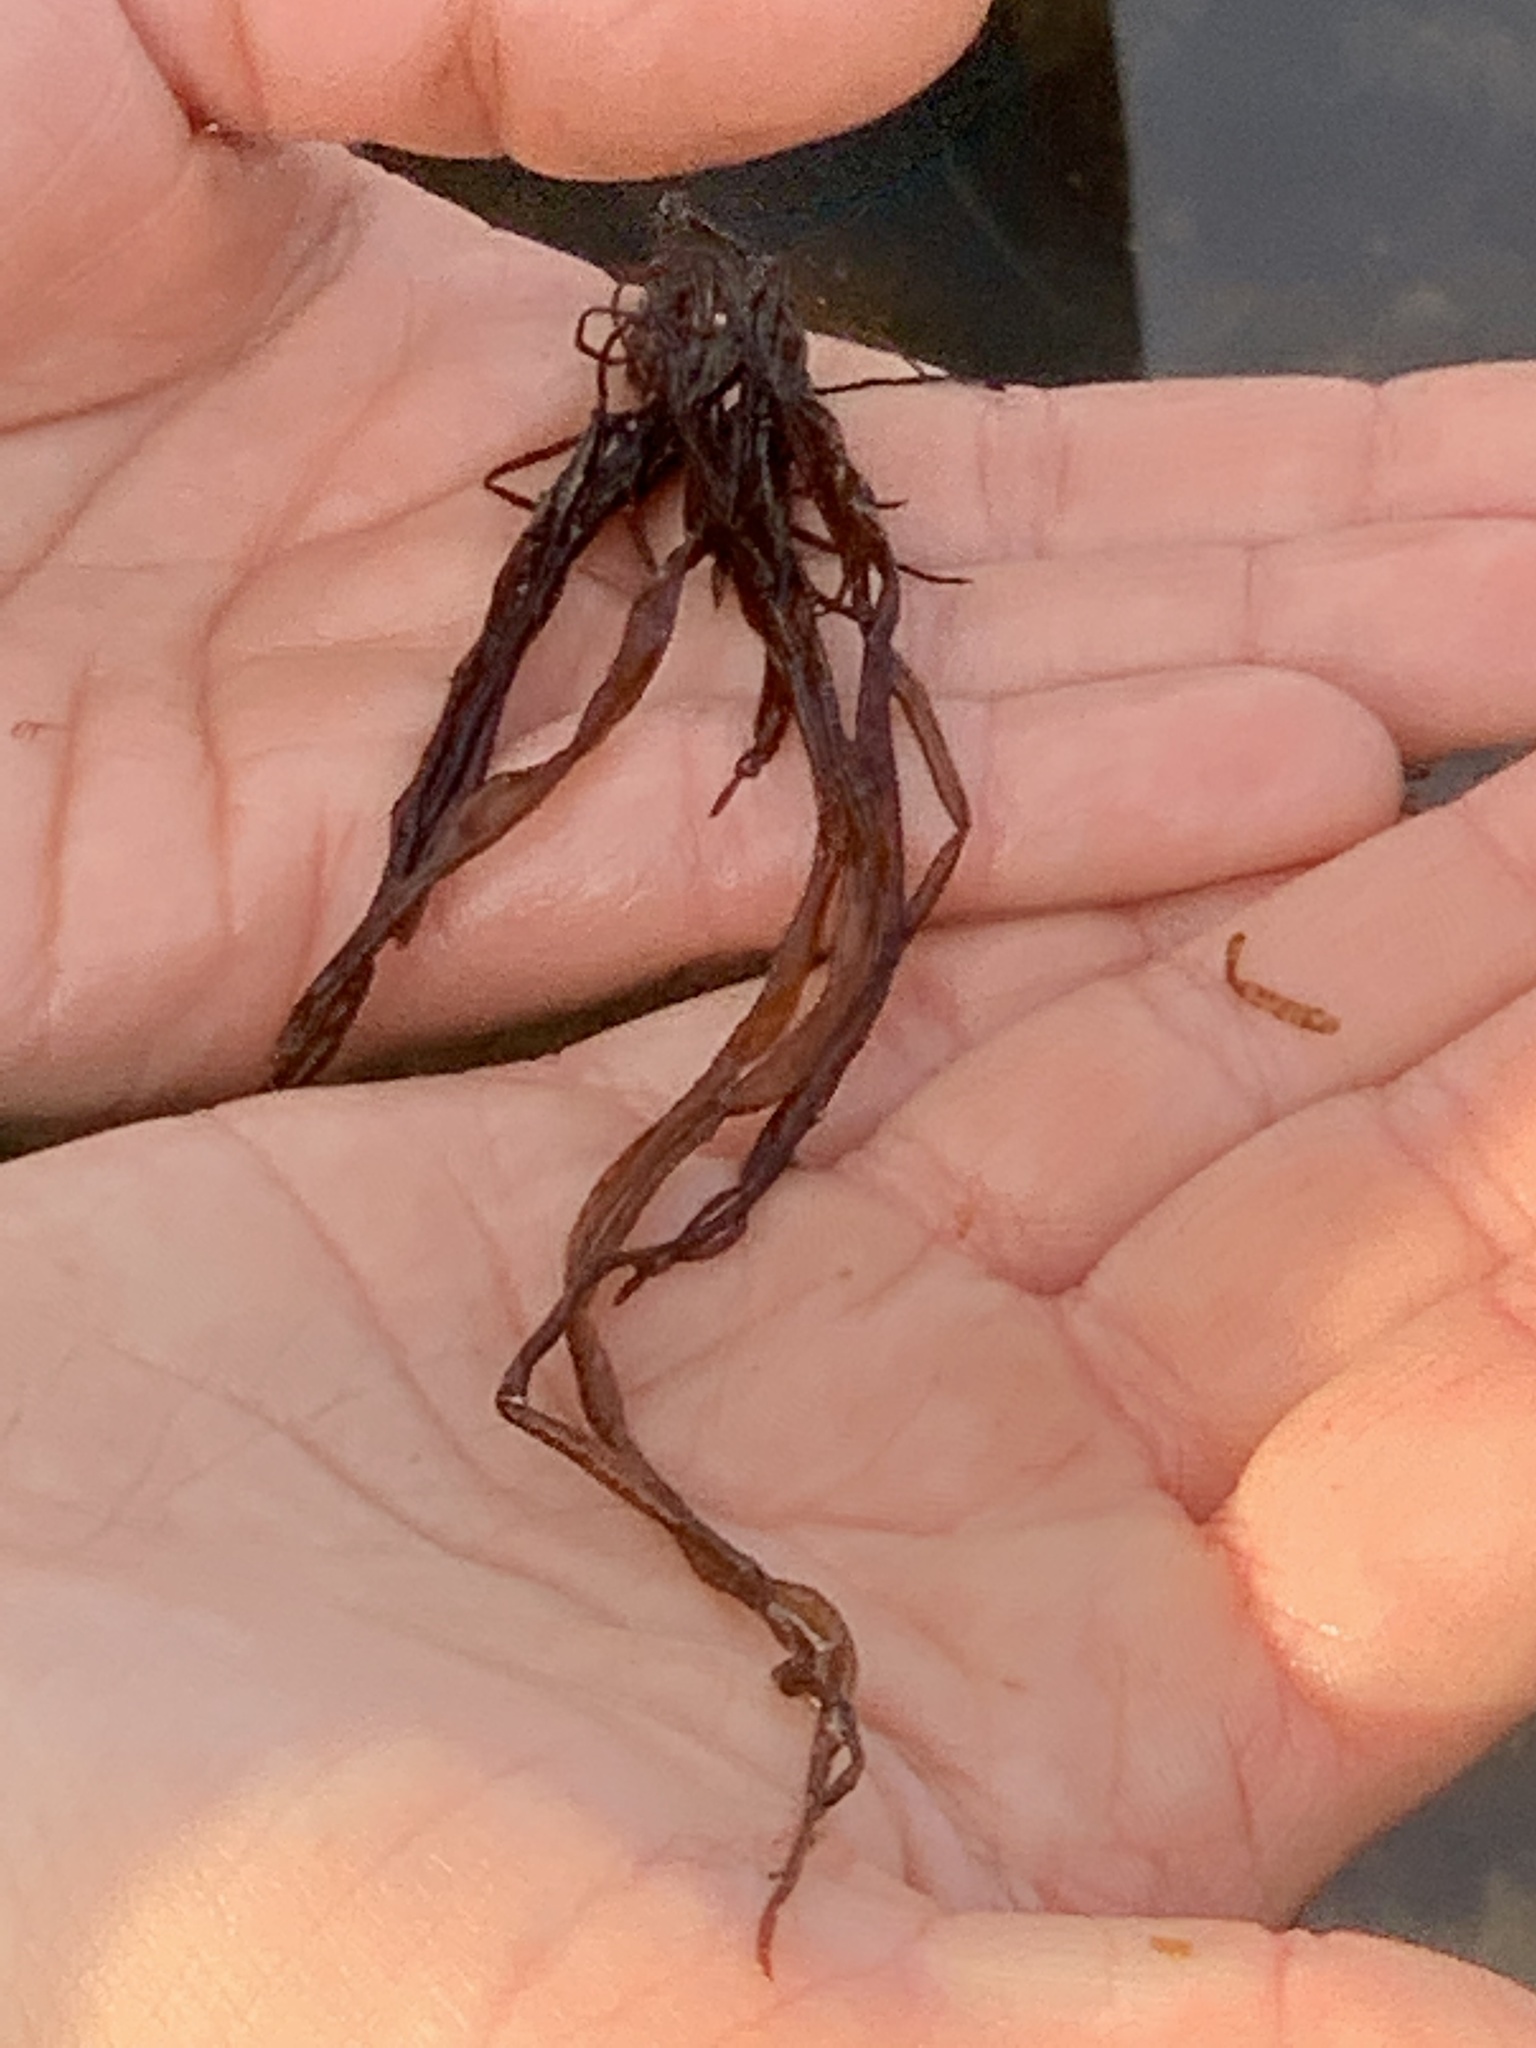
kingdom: Plantae
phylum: Rhodophyta
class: Florideophyceae
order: Gigartinales
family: Dumontiaceae
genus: Dumontia
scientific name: Dumontia contorta
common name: Worm weed
